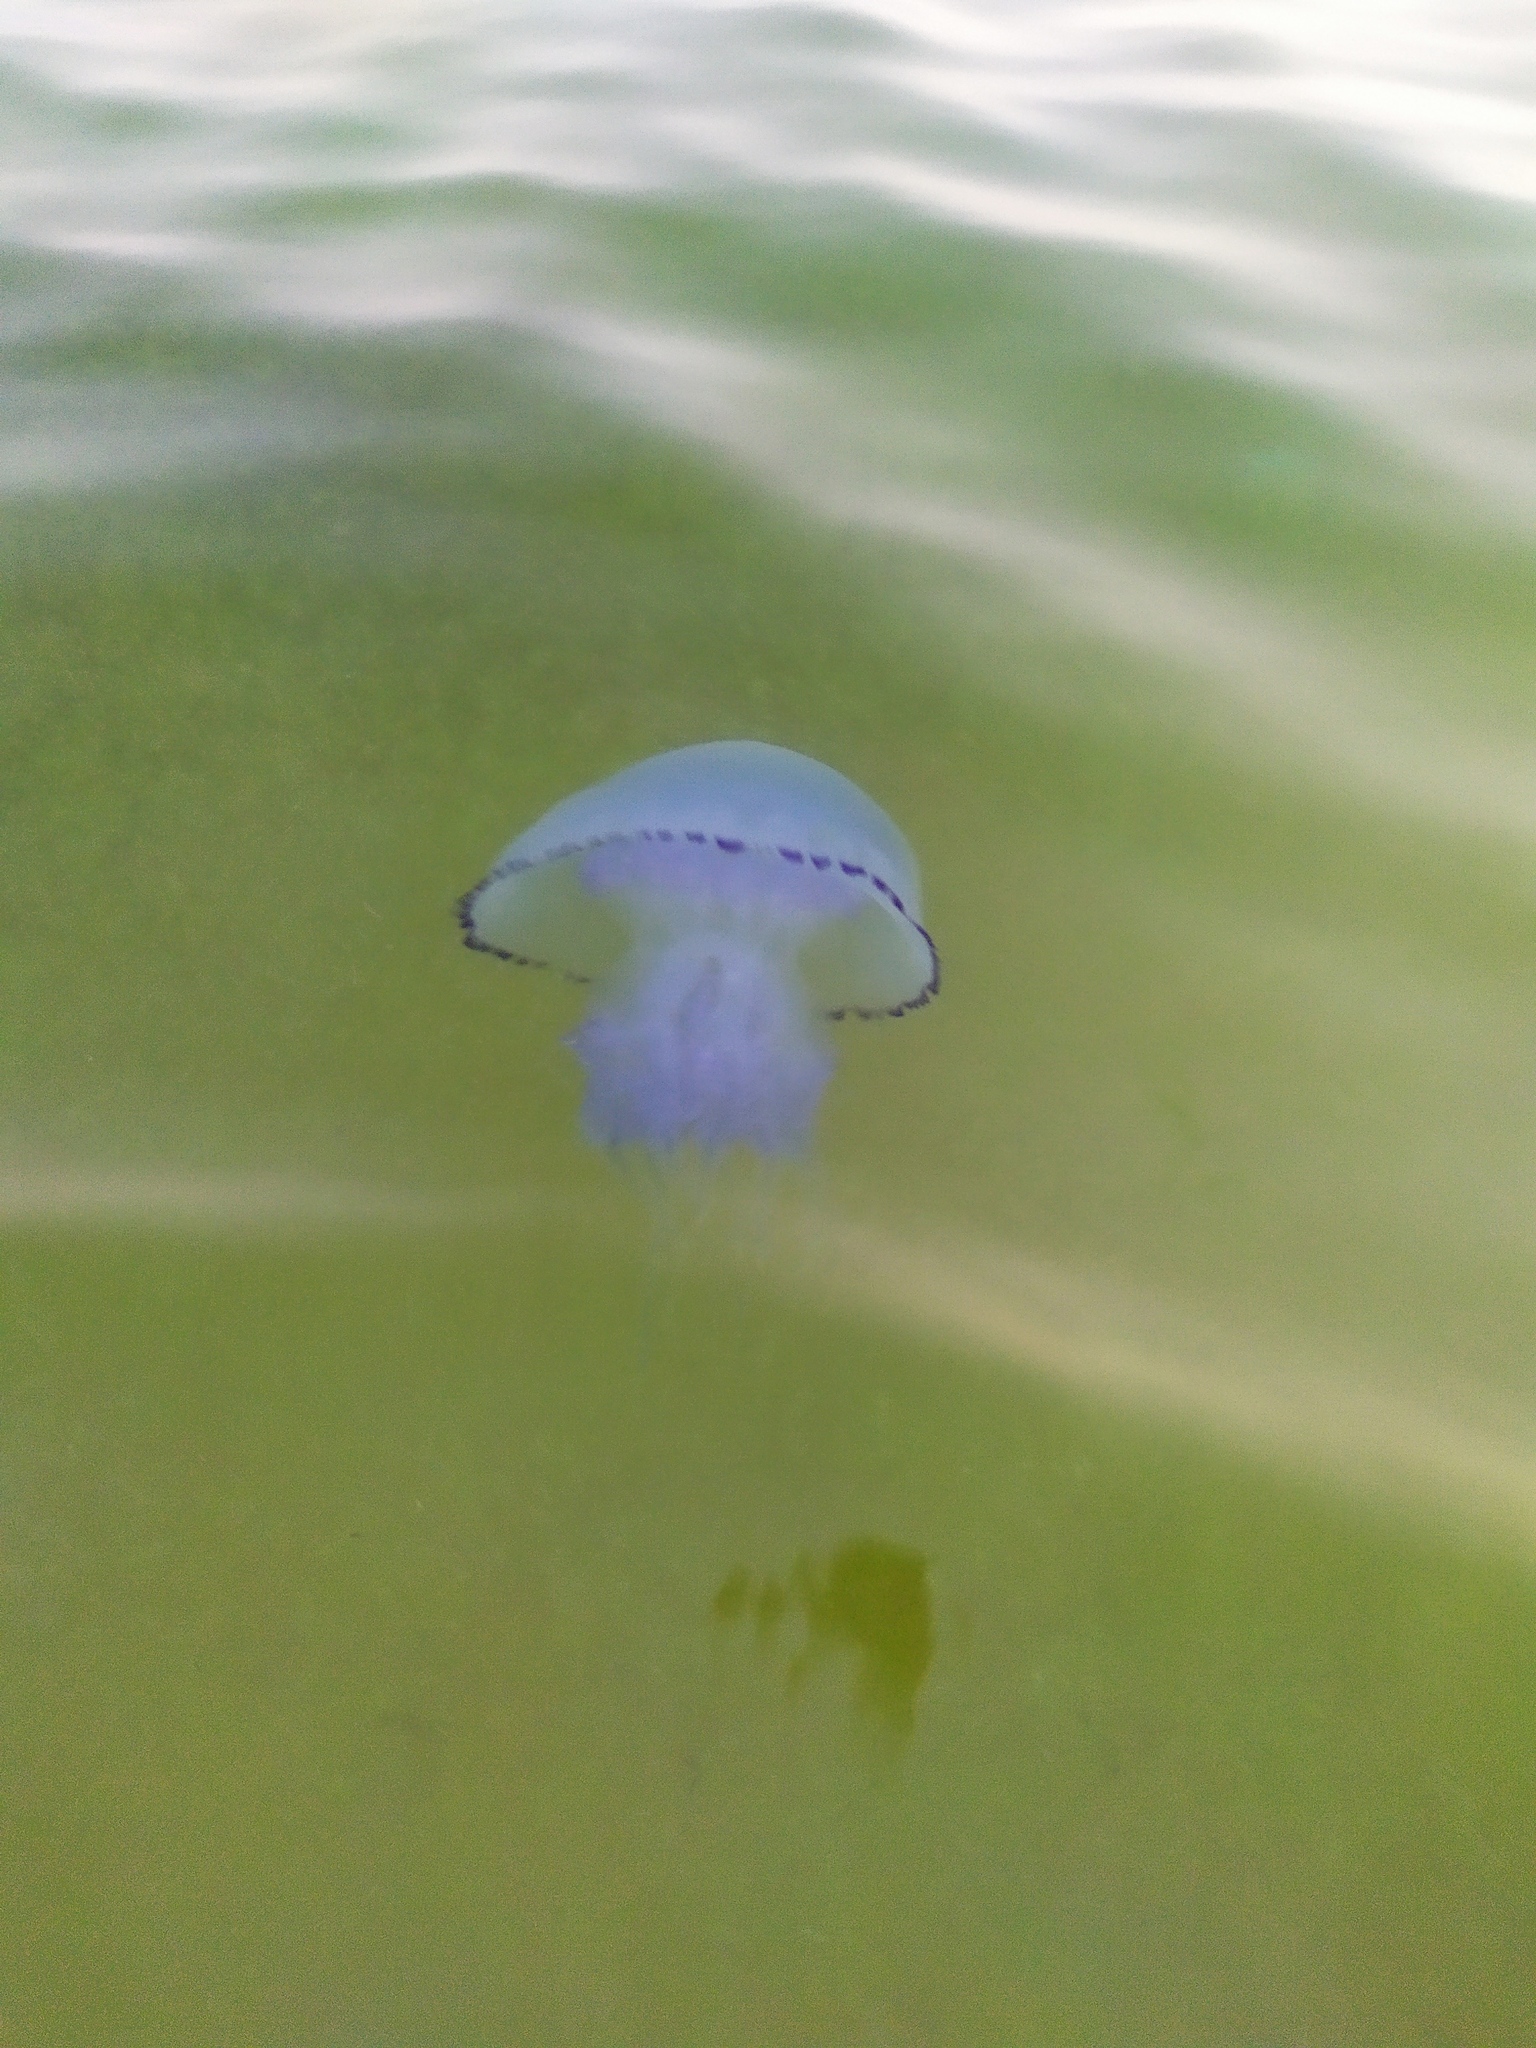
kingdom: Animalia
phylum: Cnidaria
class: Scyphozoa
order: Rhizostomeae
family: Rhizostomatidae
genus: Rhizostoma
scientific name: Rhizostoma pulmo
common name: Barrel jellyfish
